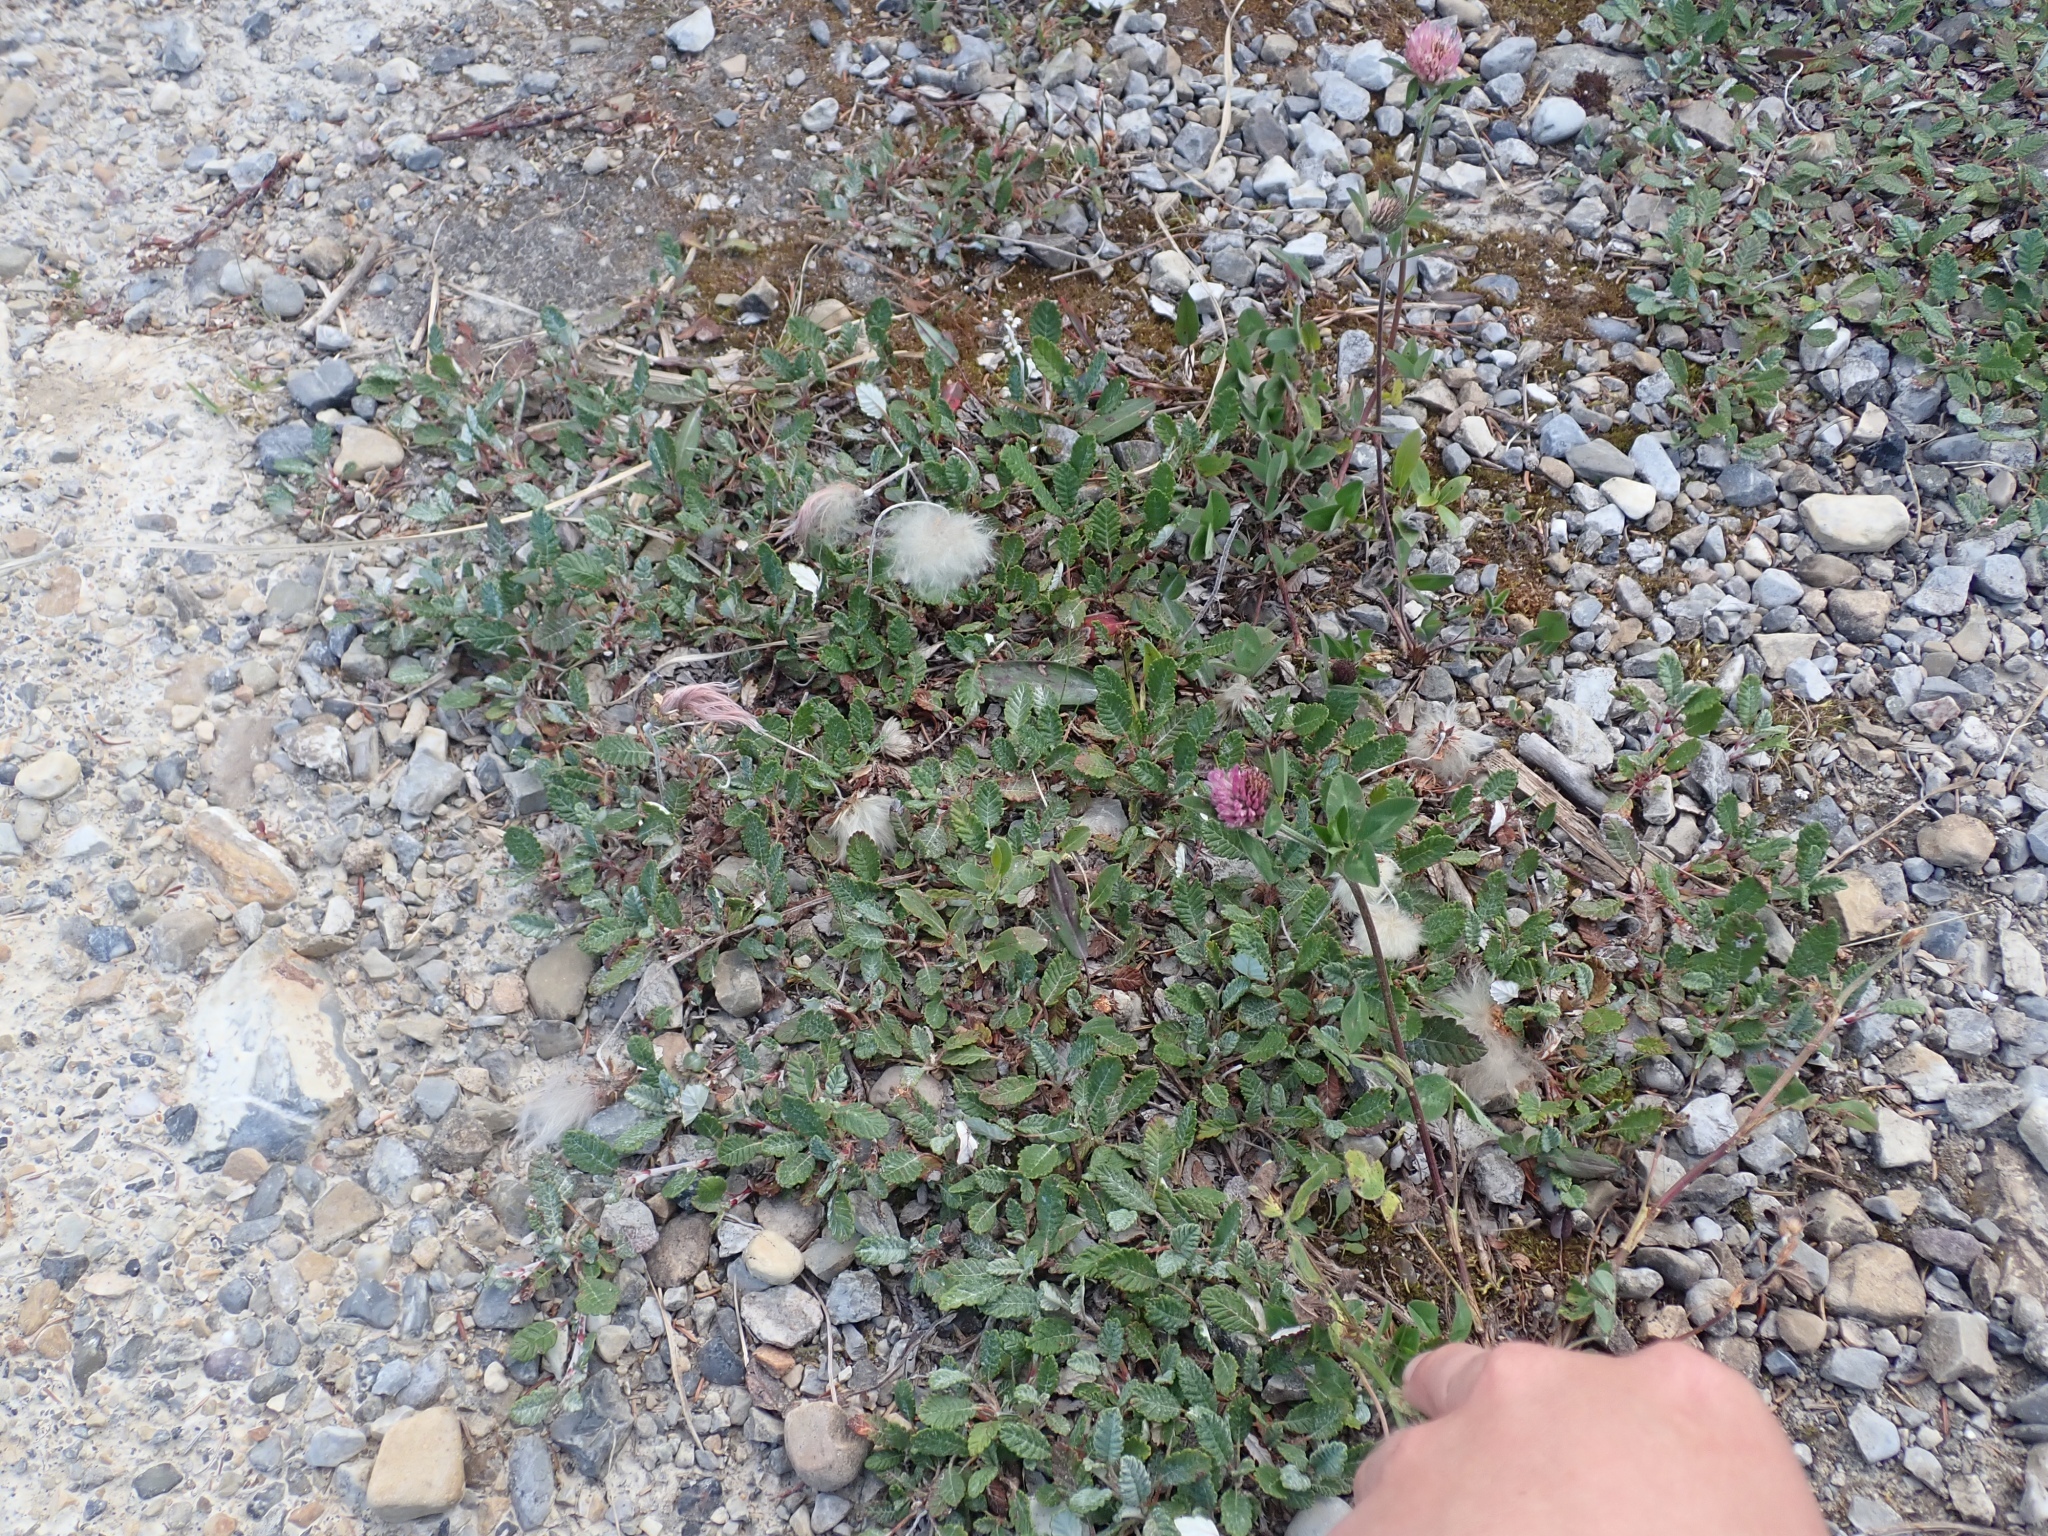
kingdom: Plantae
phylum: Tracheophyta
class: Magnoliopsida
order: Rosales
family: Rosaceae
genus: Dryas
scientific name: Dryas drummondii
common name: Drummond's dryad
